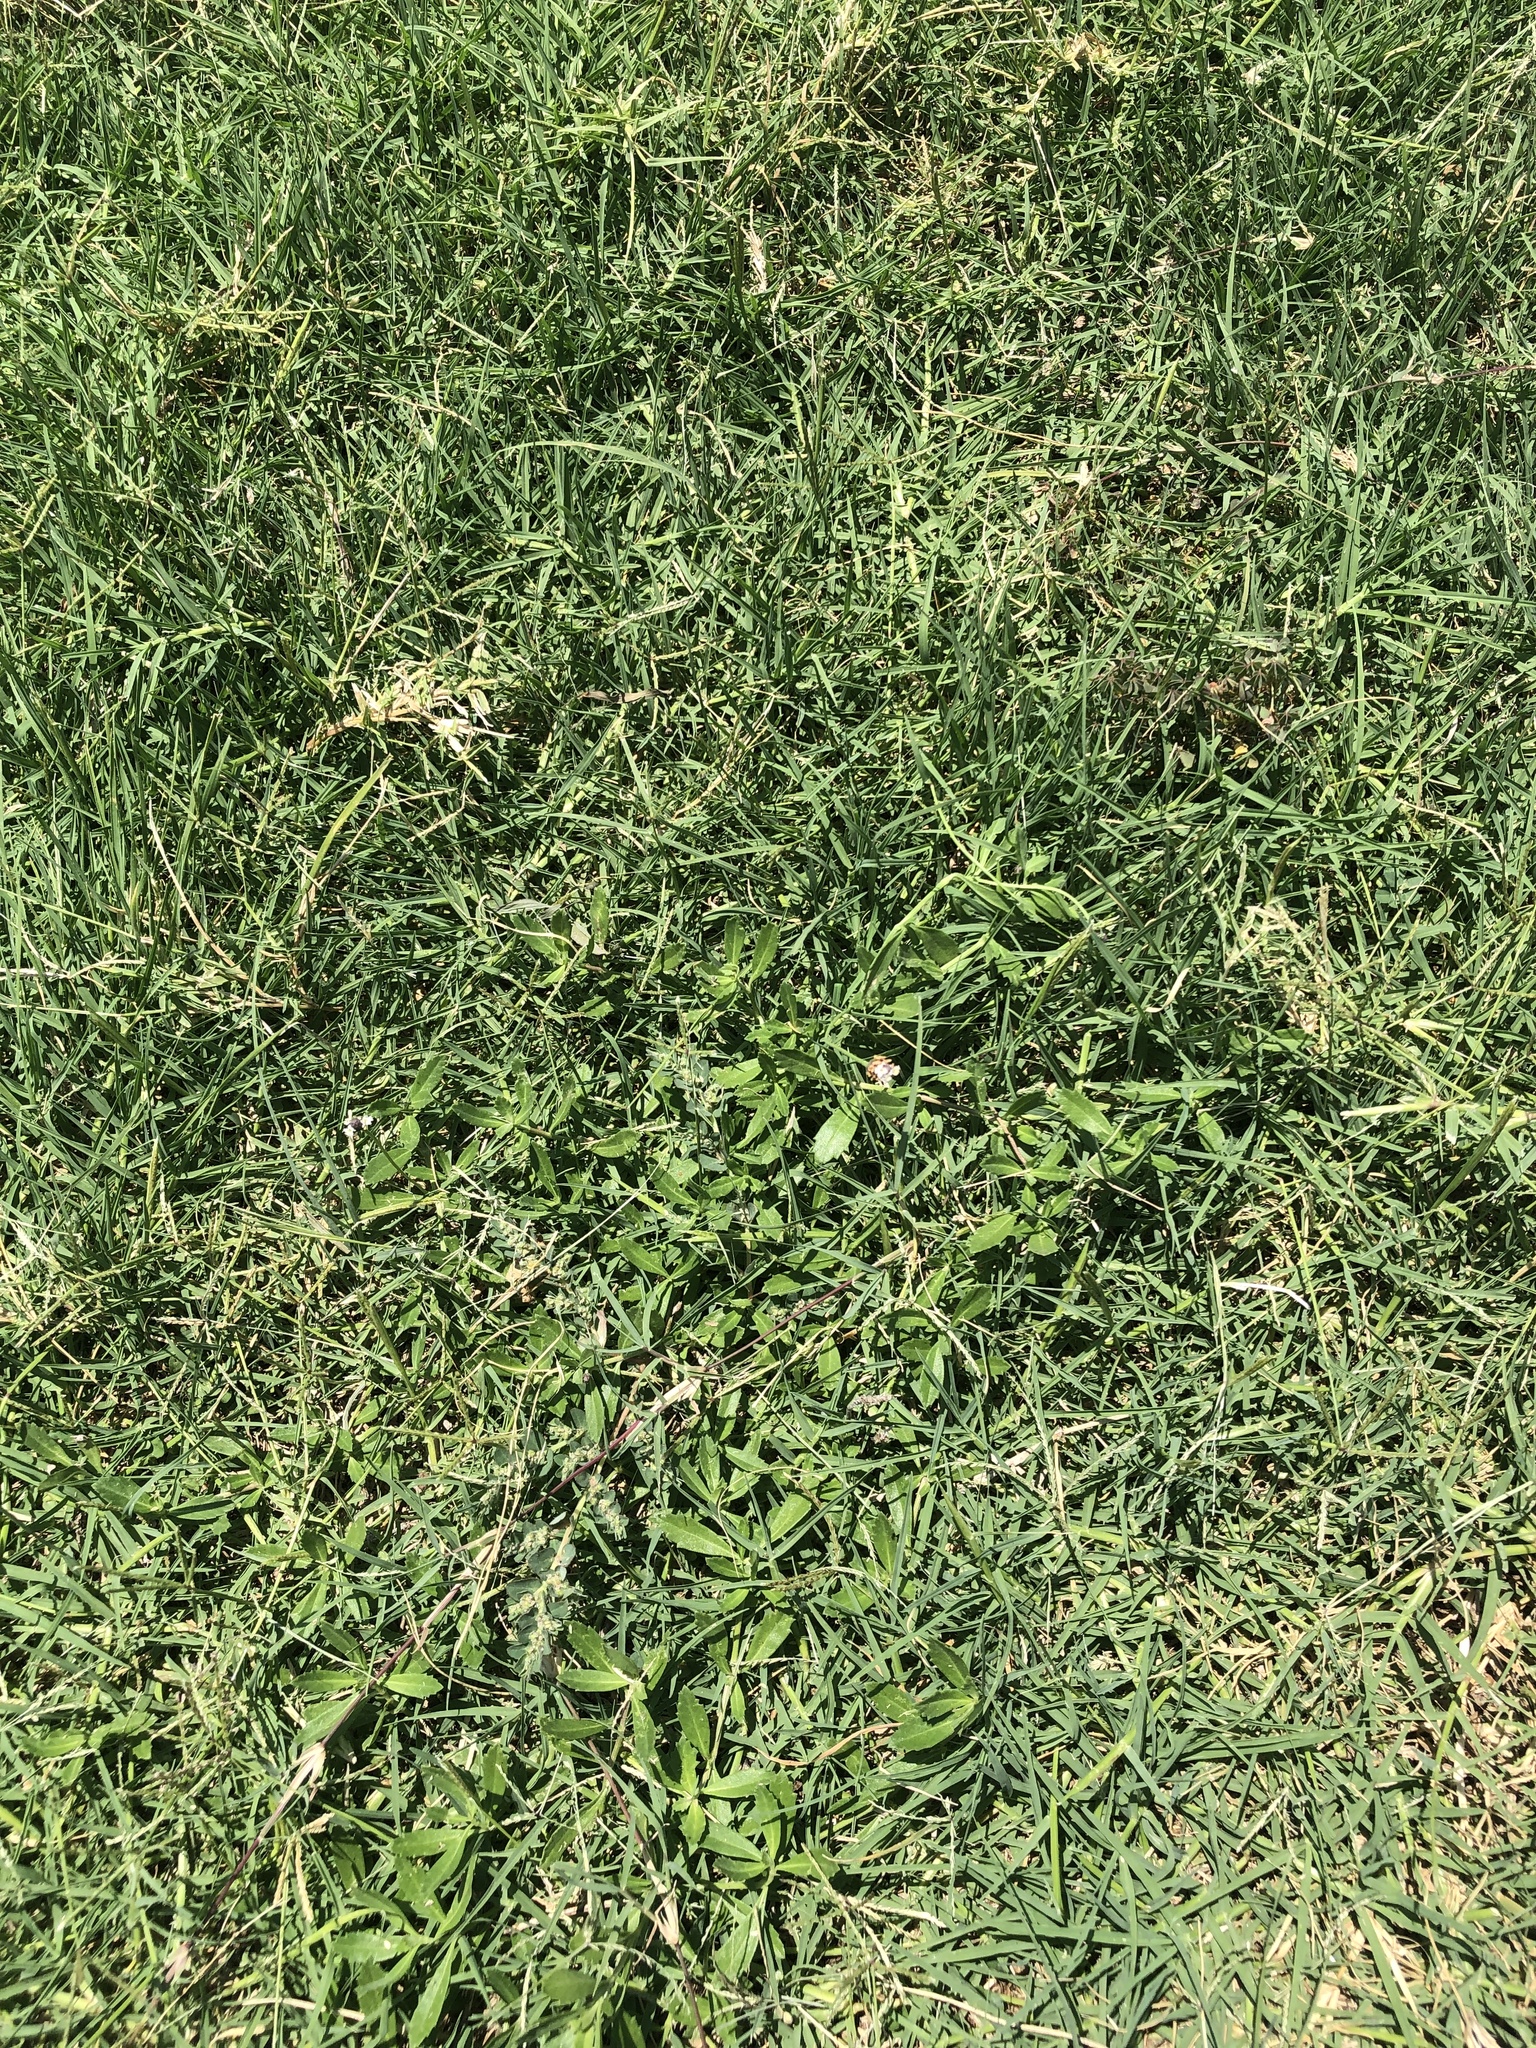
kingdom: Plantae
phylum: Tracheophyta
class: Magnoliopsida
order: Lamiales
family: Verbenaceae
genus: Phyla
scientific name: Phyla nodiflora
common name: Frogfruit
